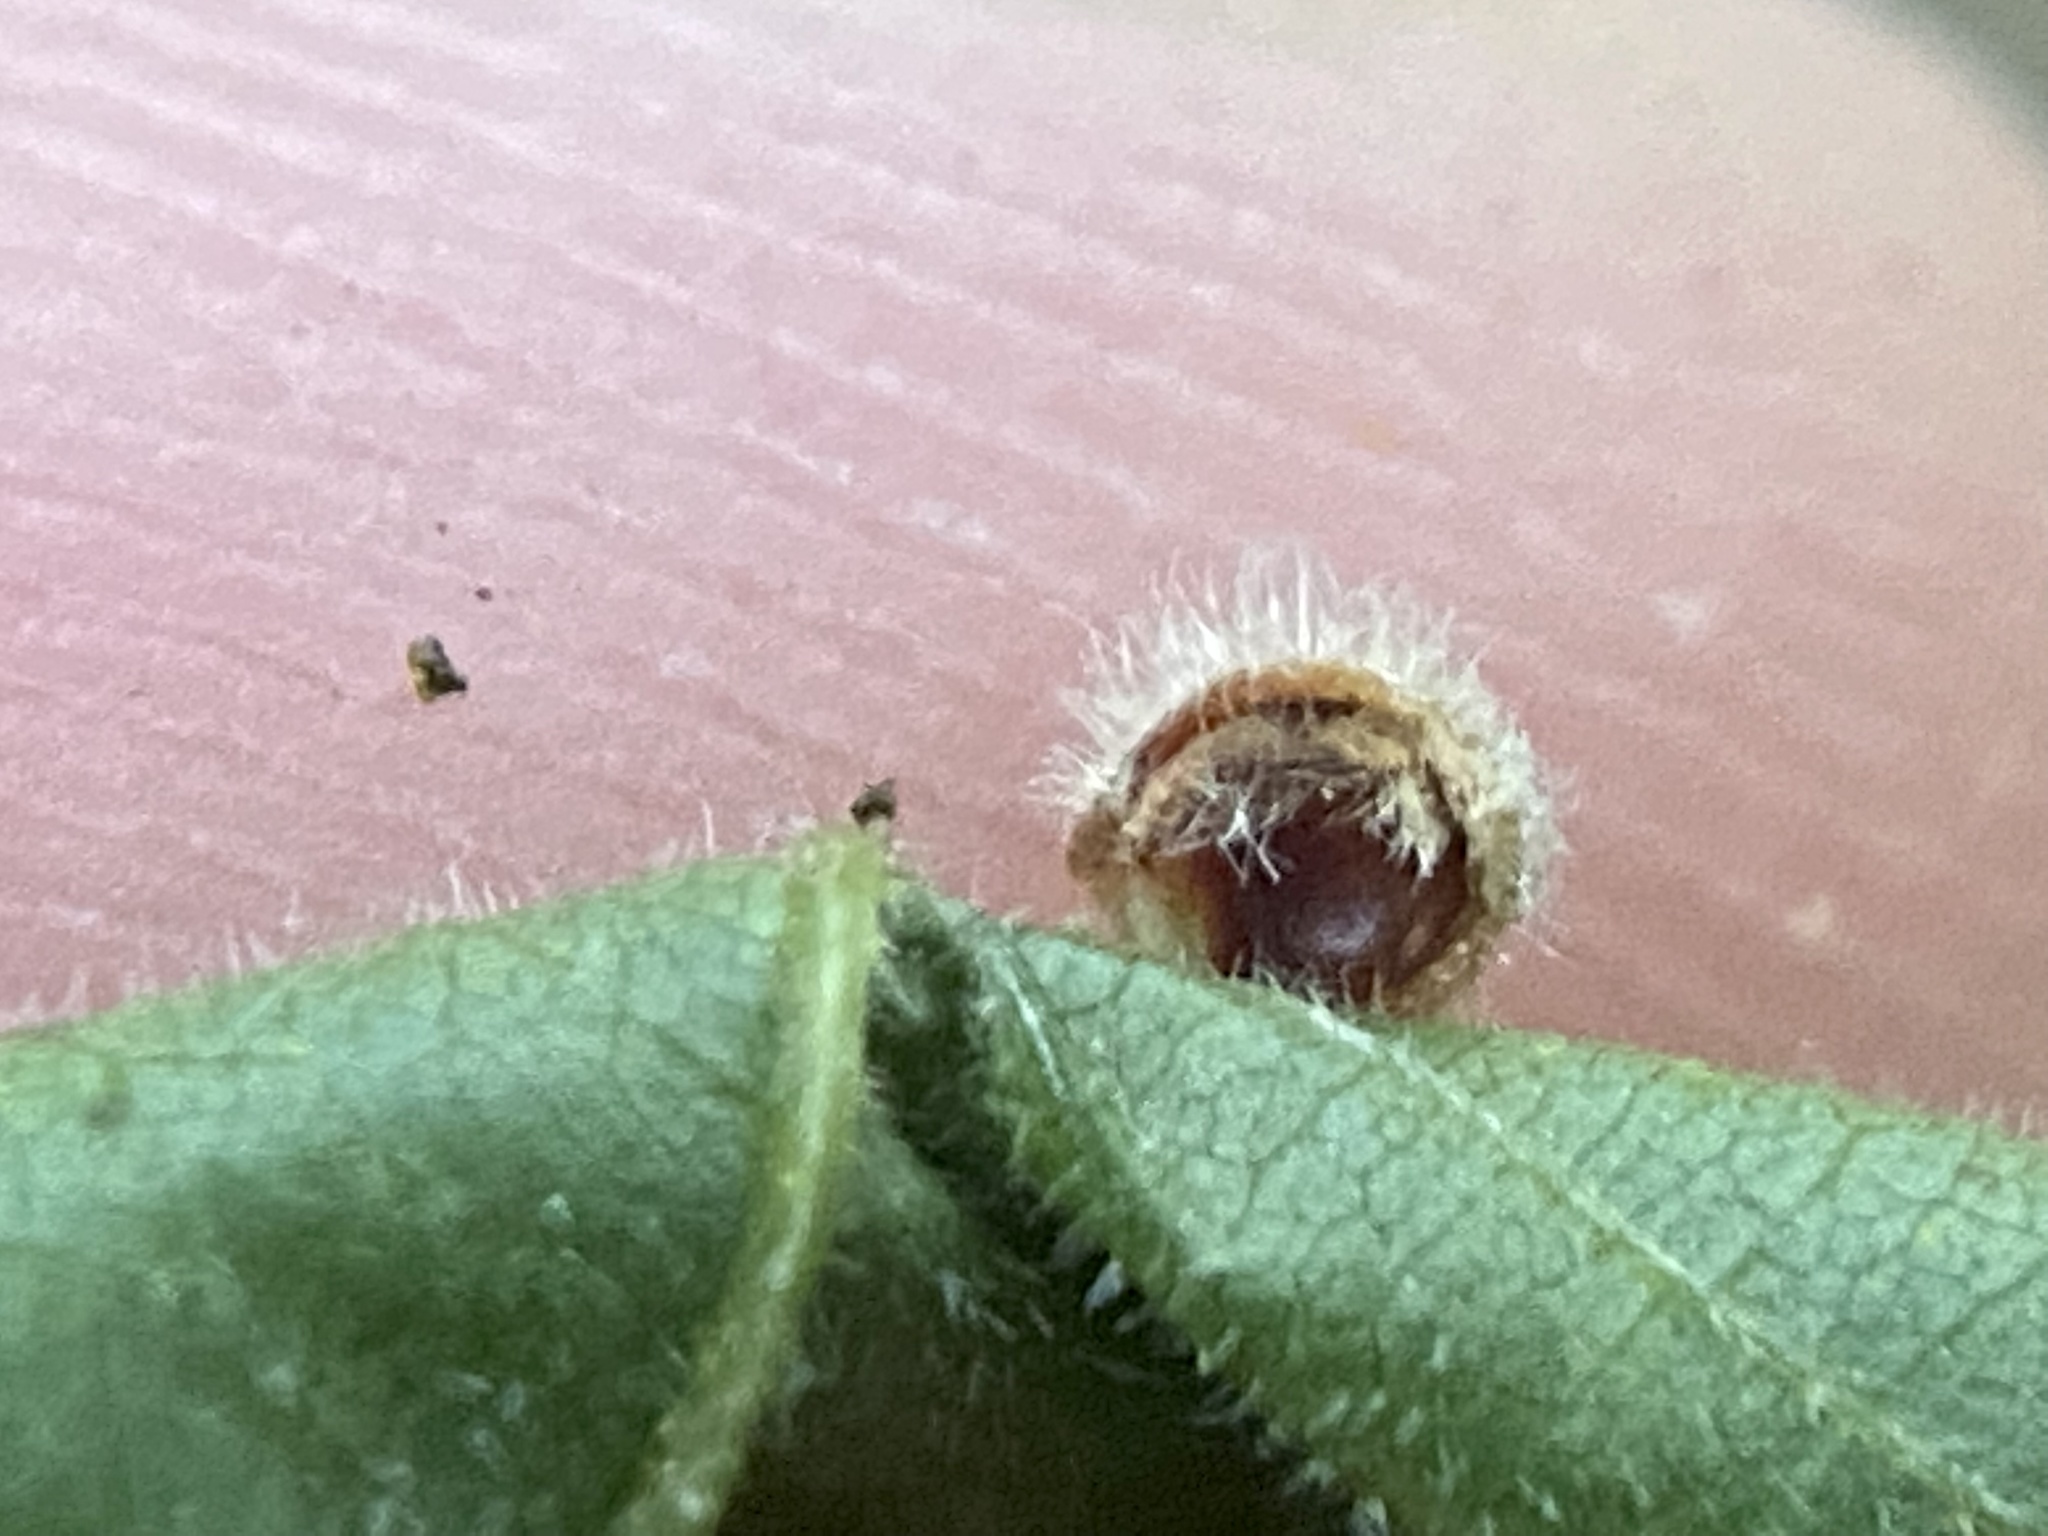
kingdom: Animalia
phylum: Arthropoda
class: Insecta
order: Diptera
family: Cecidomyiidae
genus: Caryomyia
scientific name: Caryomyia cilidolium
